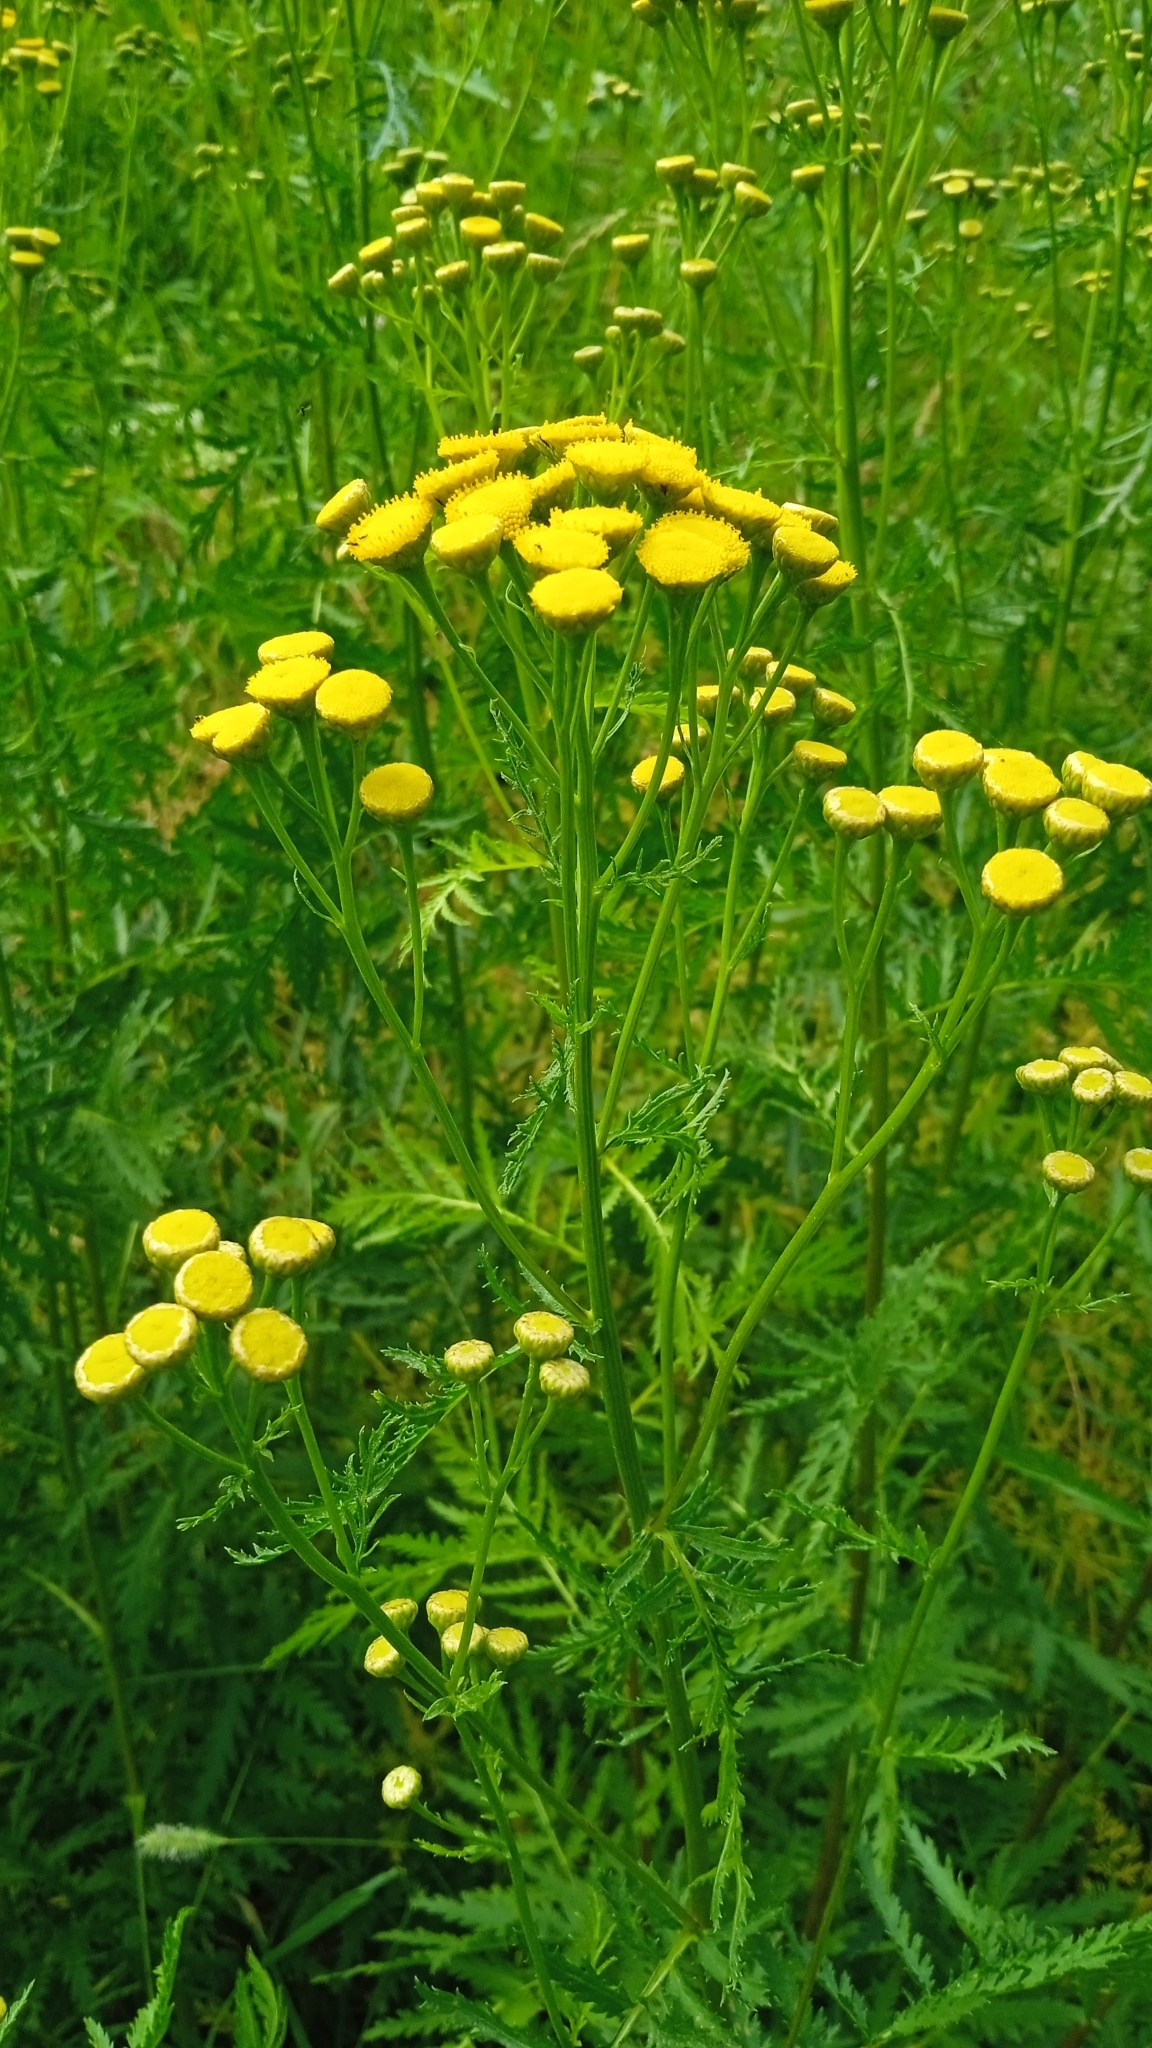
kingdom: Plantae
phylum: Tracheophyta
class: Magnoliopsida
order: Asterales
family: Asteraceae
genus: Tanacetum
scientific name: Tanacetum vulgare
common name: Common tansy
